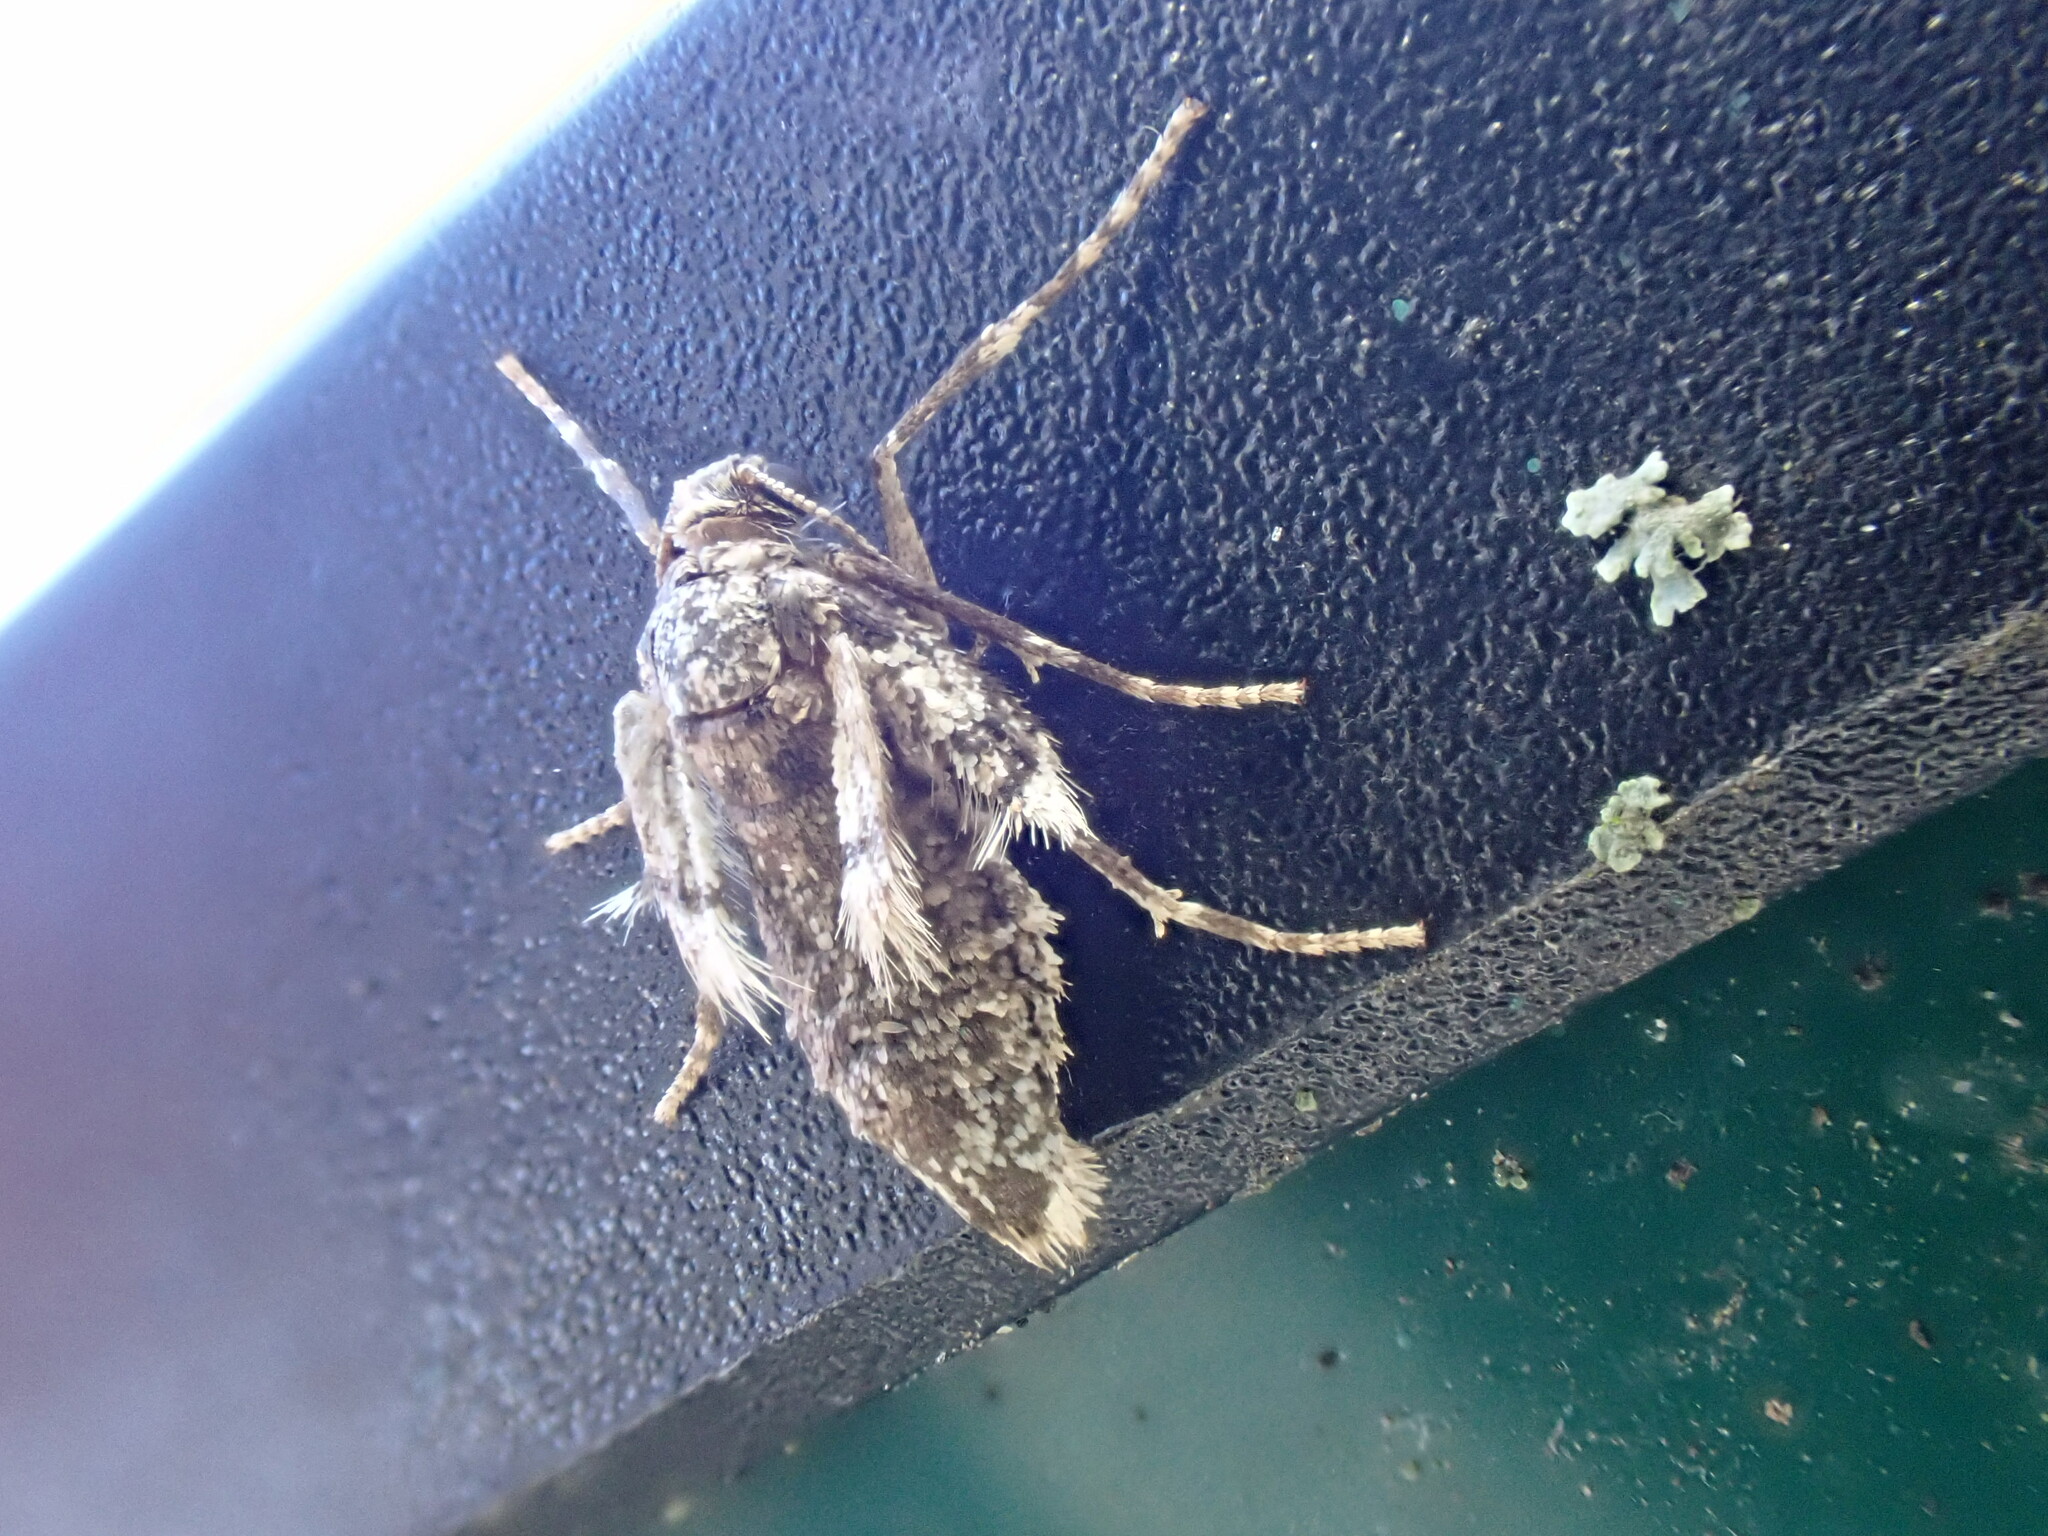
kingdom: Animalia
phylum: Arthropoda
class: Insecta
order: Lepidoptera
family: Geometridae
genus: Operophtera
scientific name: Operophtera brumata
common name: Winter moth
